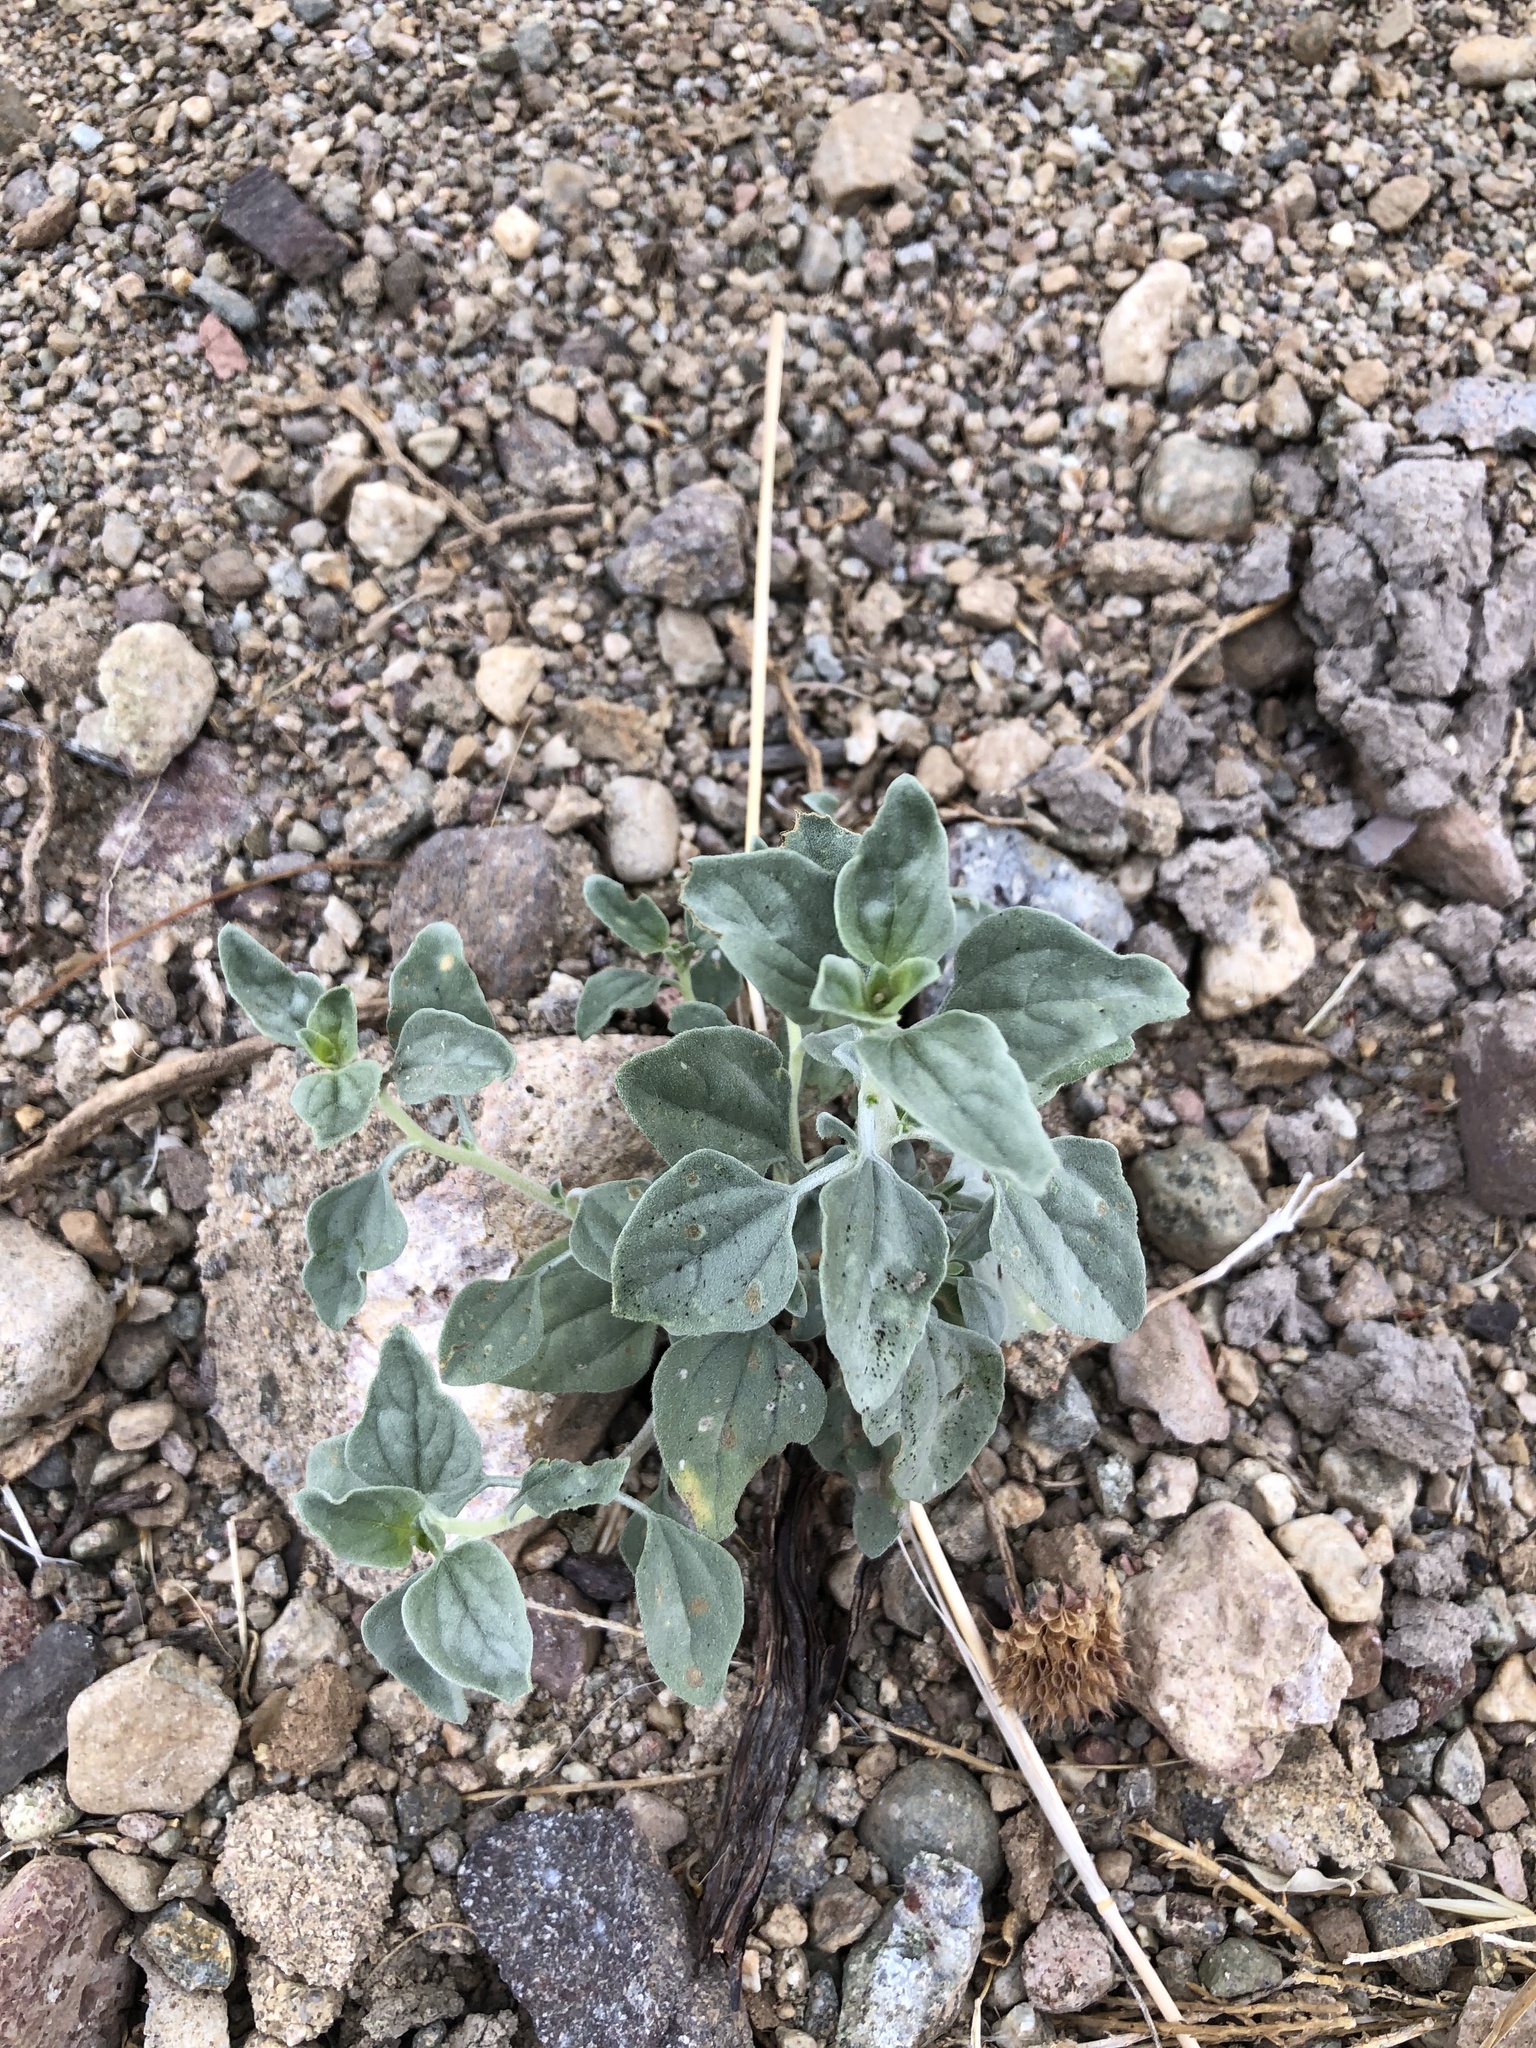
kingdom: Plantae
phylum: Tracheophyta
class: Magnoliopsida
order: Asterales
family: Asteraceae
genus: Encelia
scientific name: Encelia actoni
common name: Acton encelia
